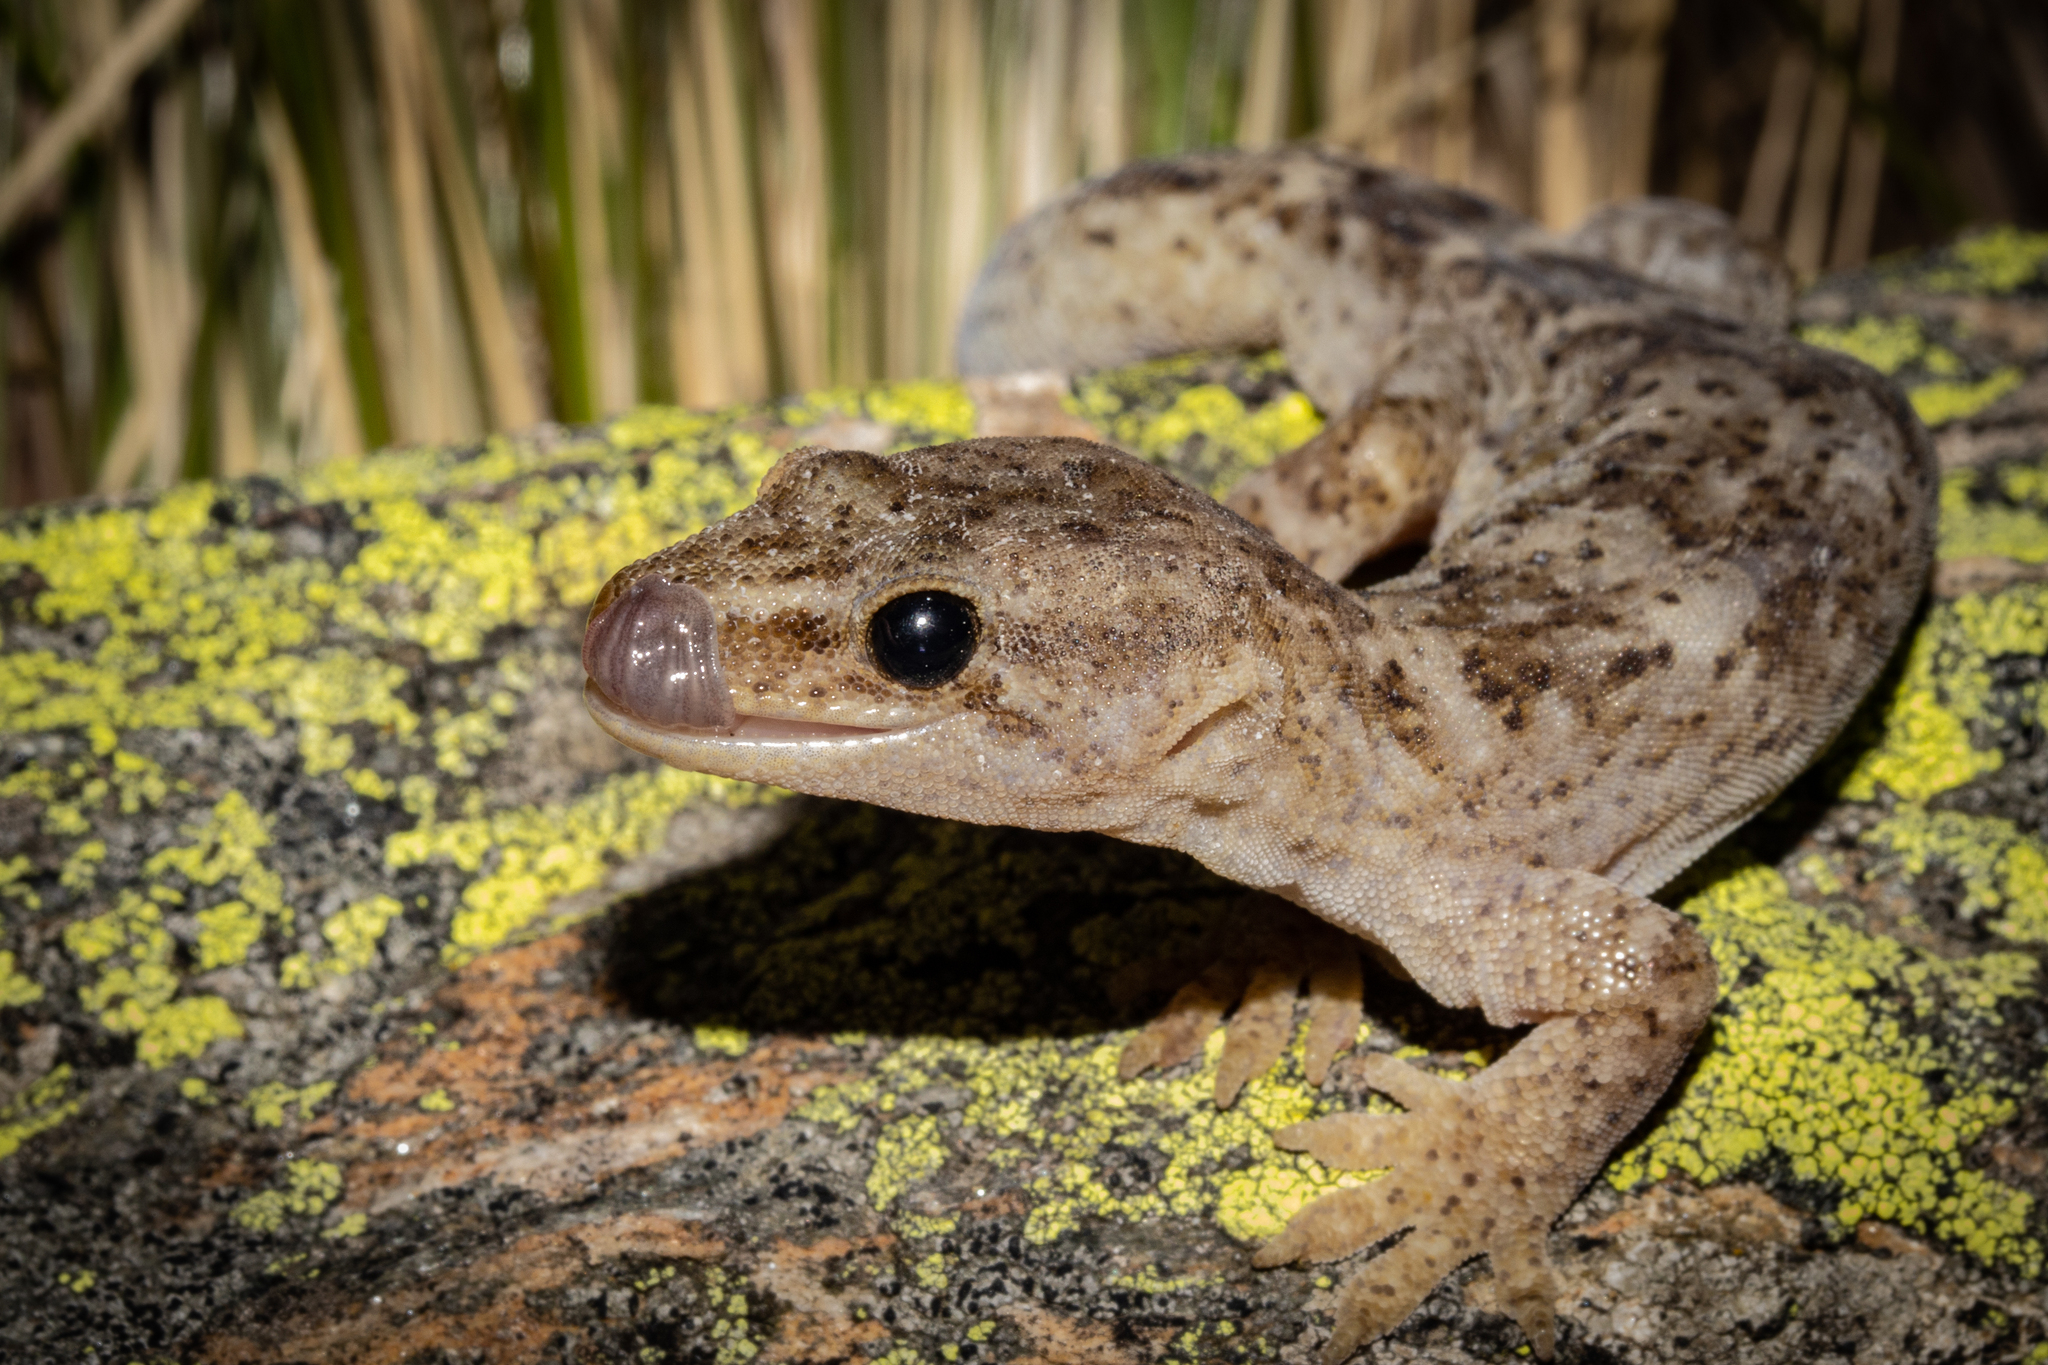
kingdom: Animalia
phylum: Chordata
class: Squamata
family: Diplodactylidae
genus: Woodworthia
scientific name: Woodworthia
